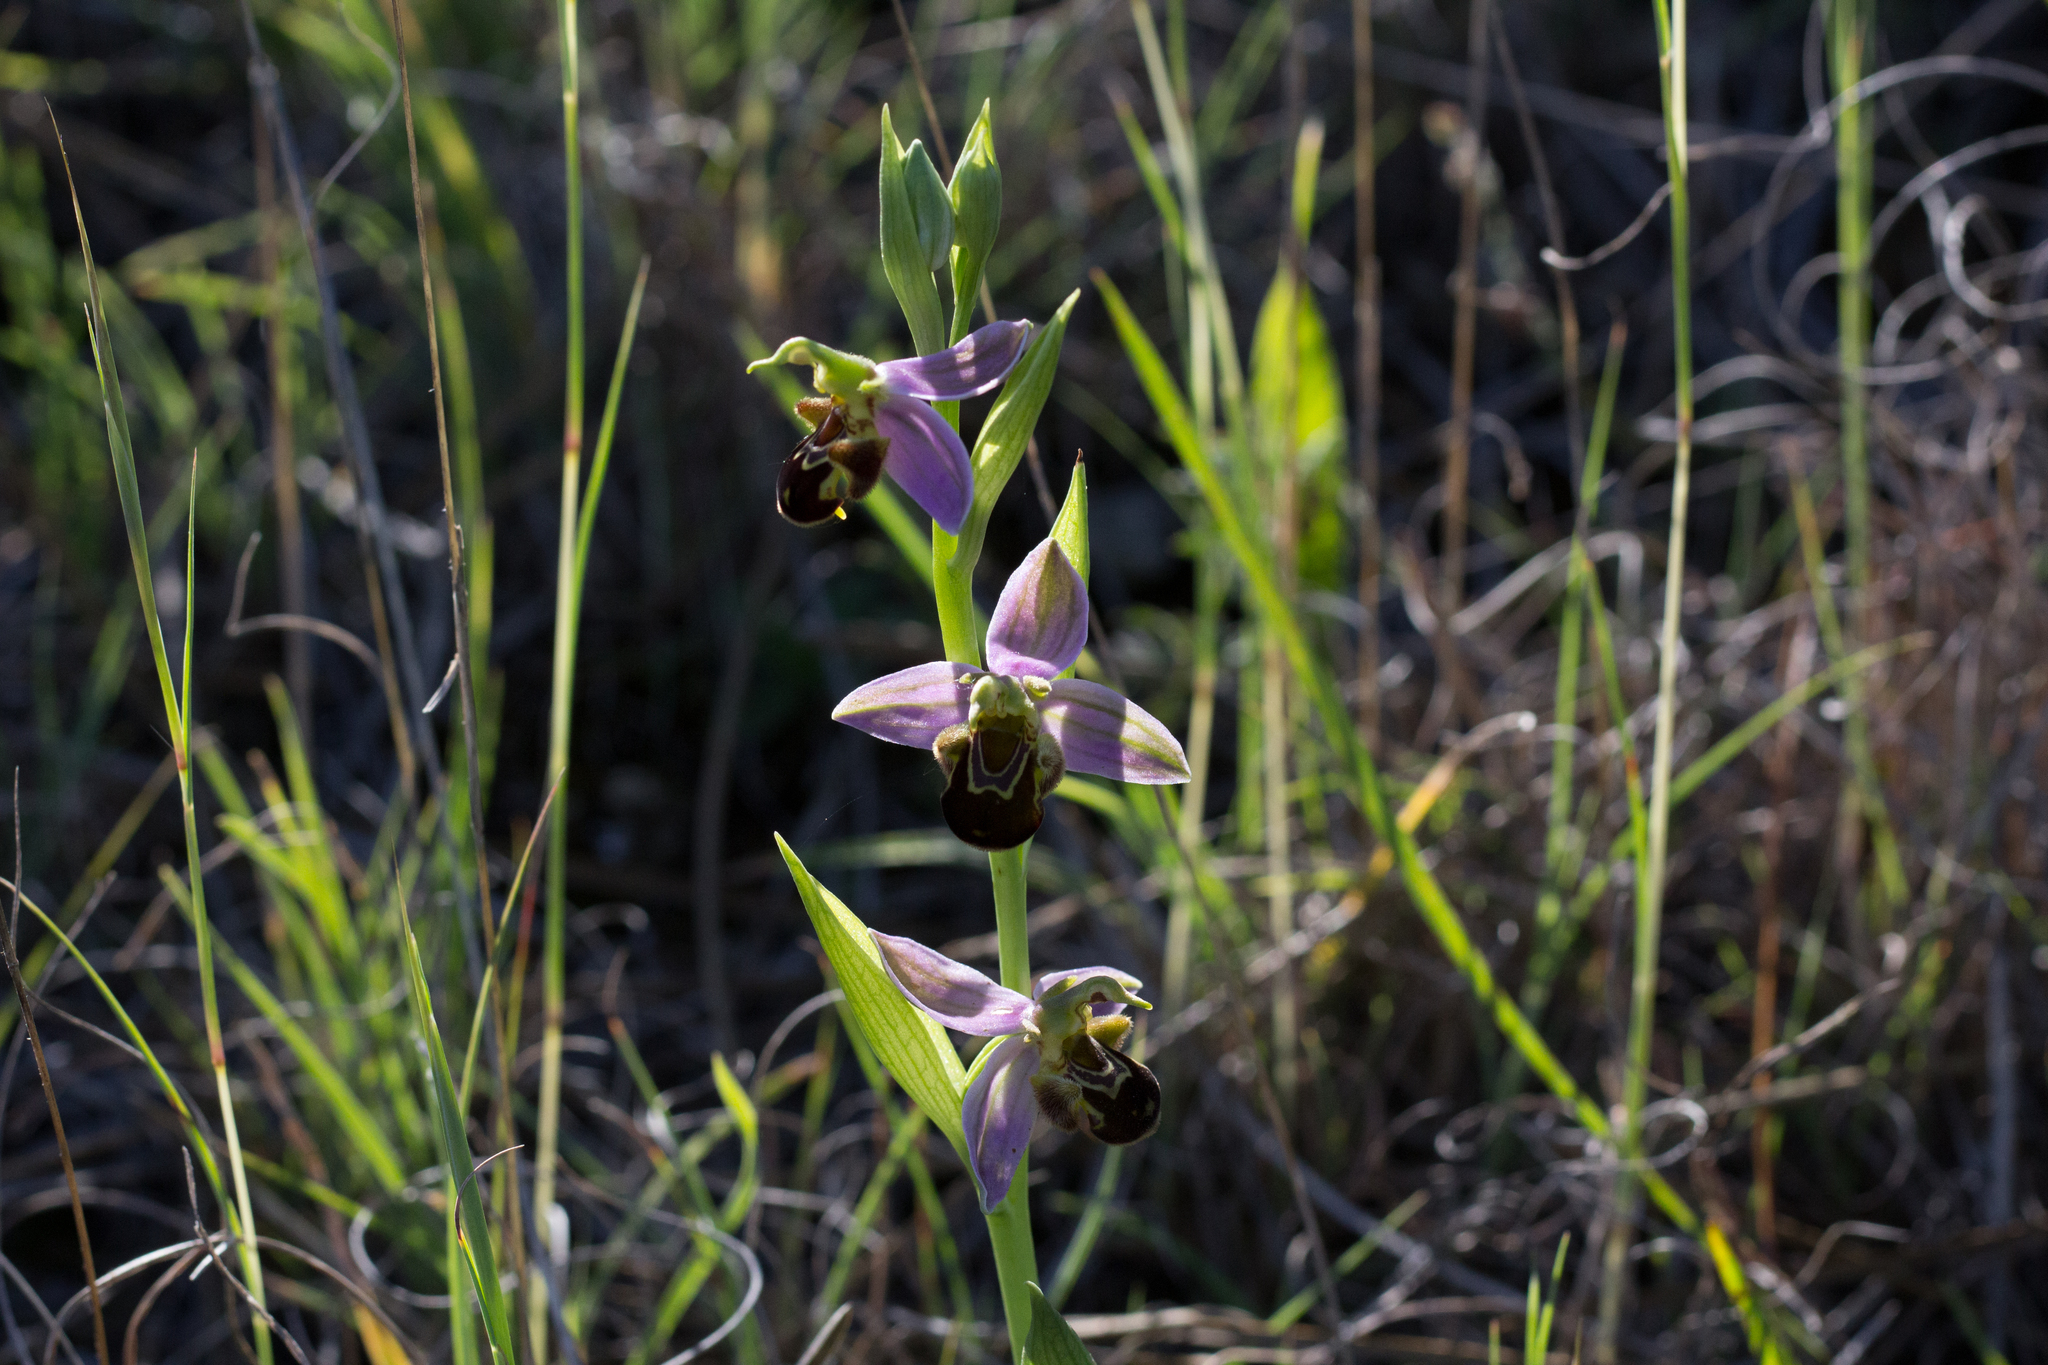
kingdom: Plantae
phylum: Tracheophyta
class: Liliopsida
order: Asparagales
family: Orchidaceae
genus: Ophrys
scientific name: Ophrys apifera
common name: Bee orchid
